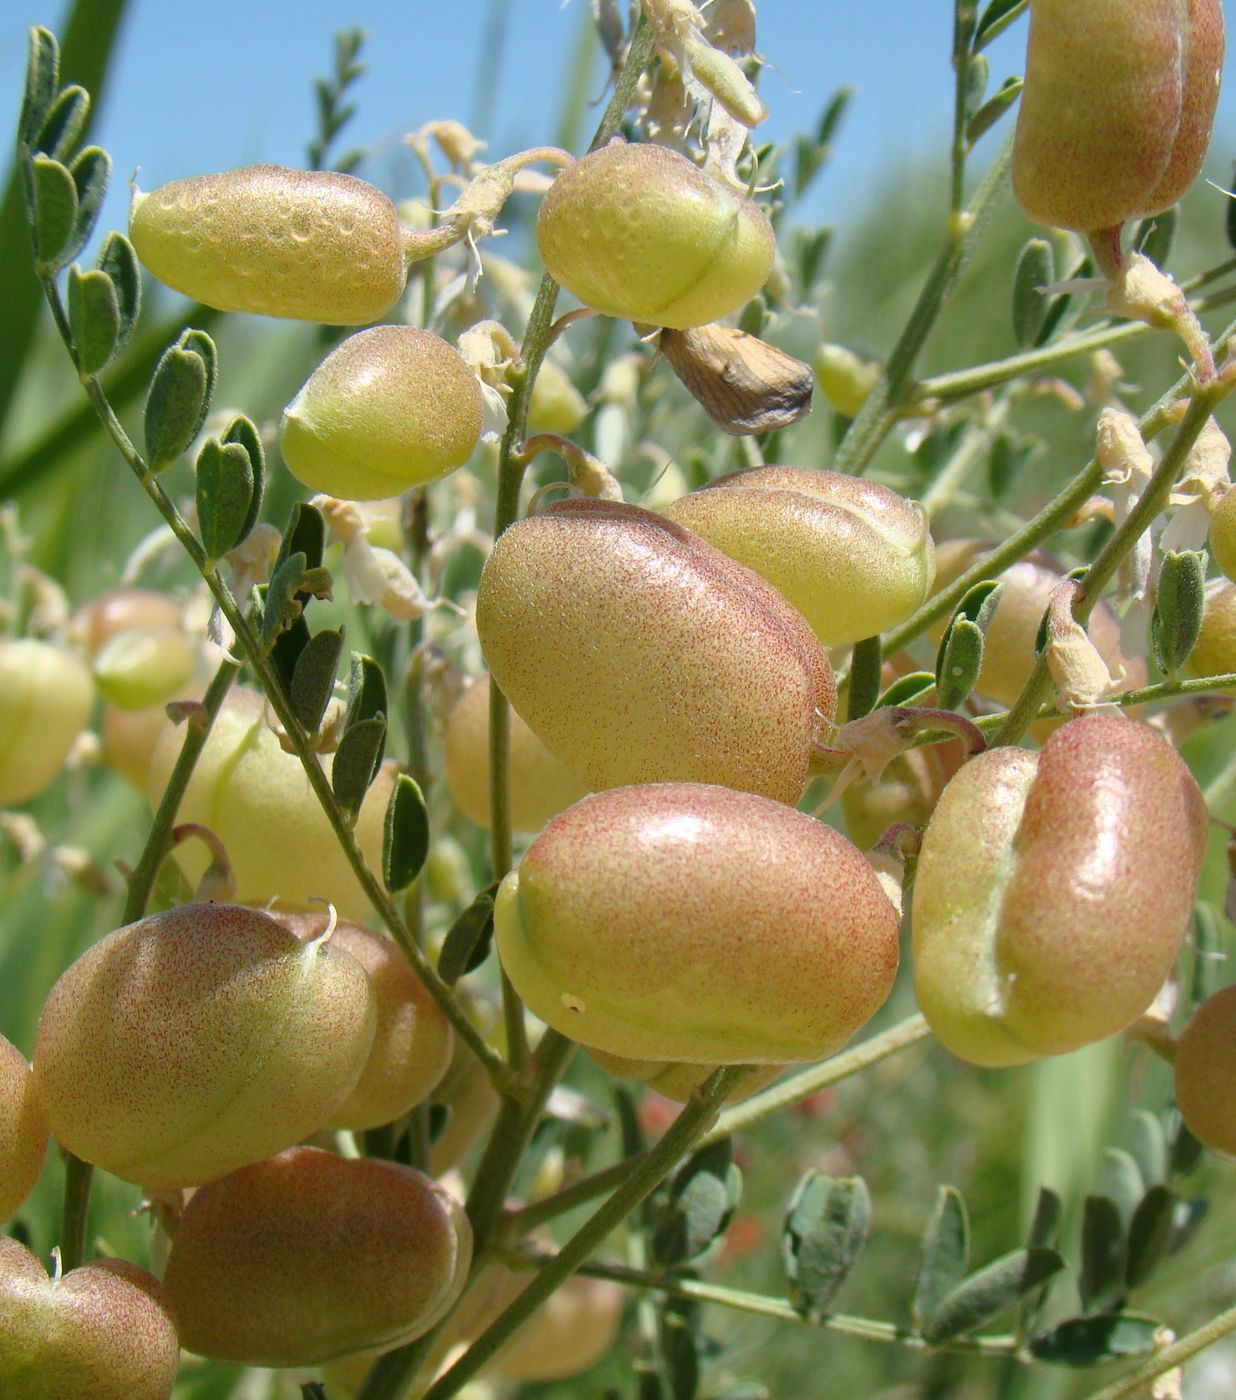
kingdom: Plantae
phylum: Tracheophyta
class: Magnoliopsida
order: Fabales
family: Fabaceae
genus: Sphaerophysa
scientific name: Sphaerophysa salsula
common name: Alkali swainsonpea
